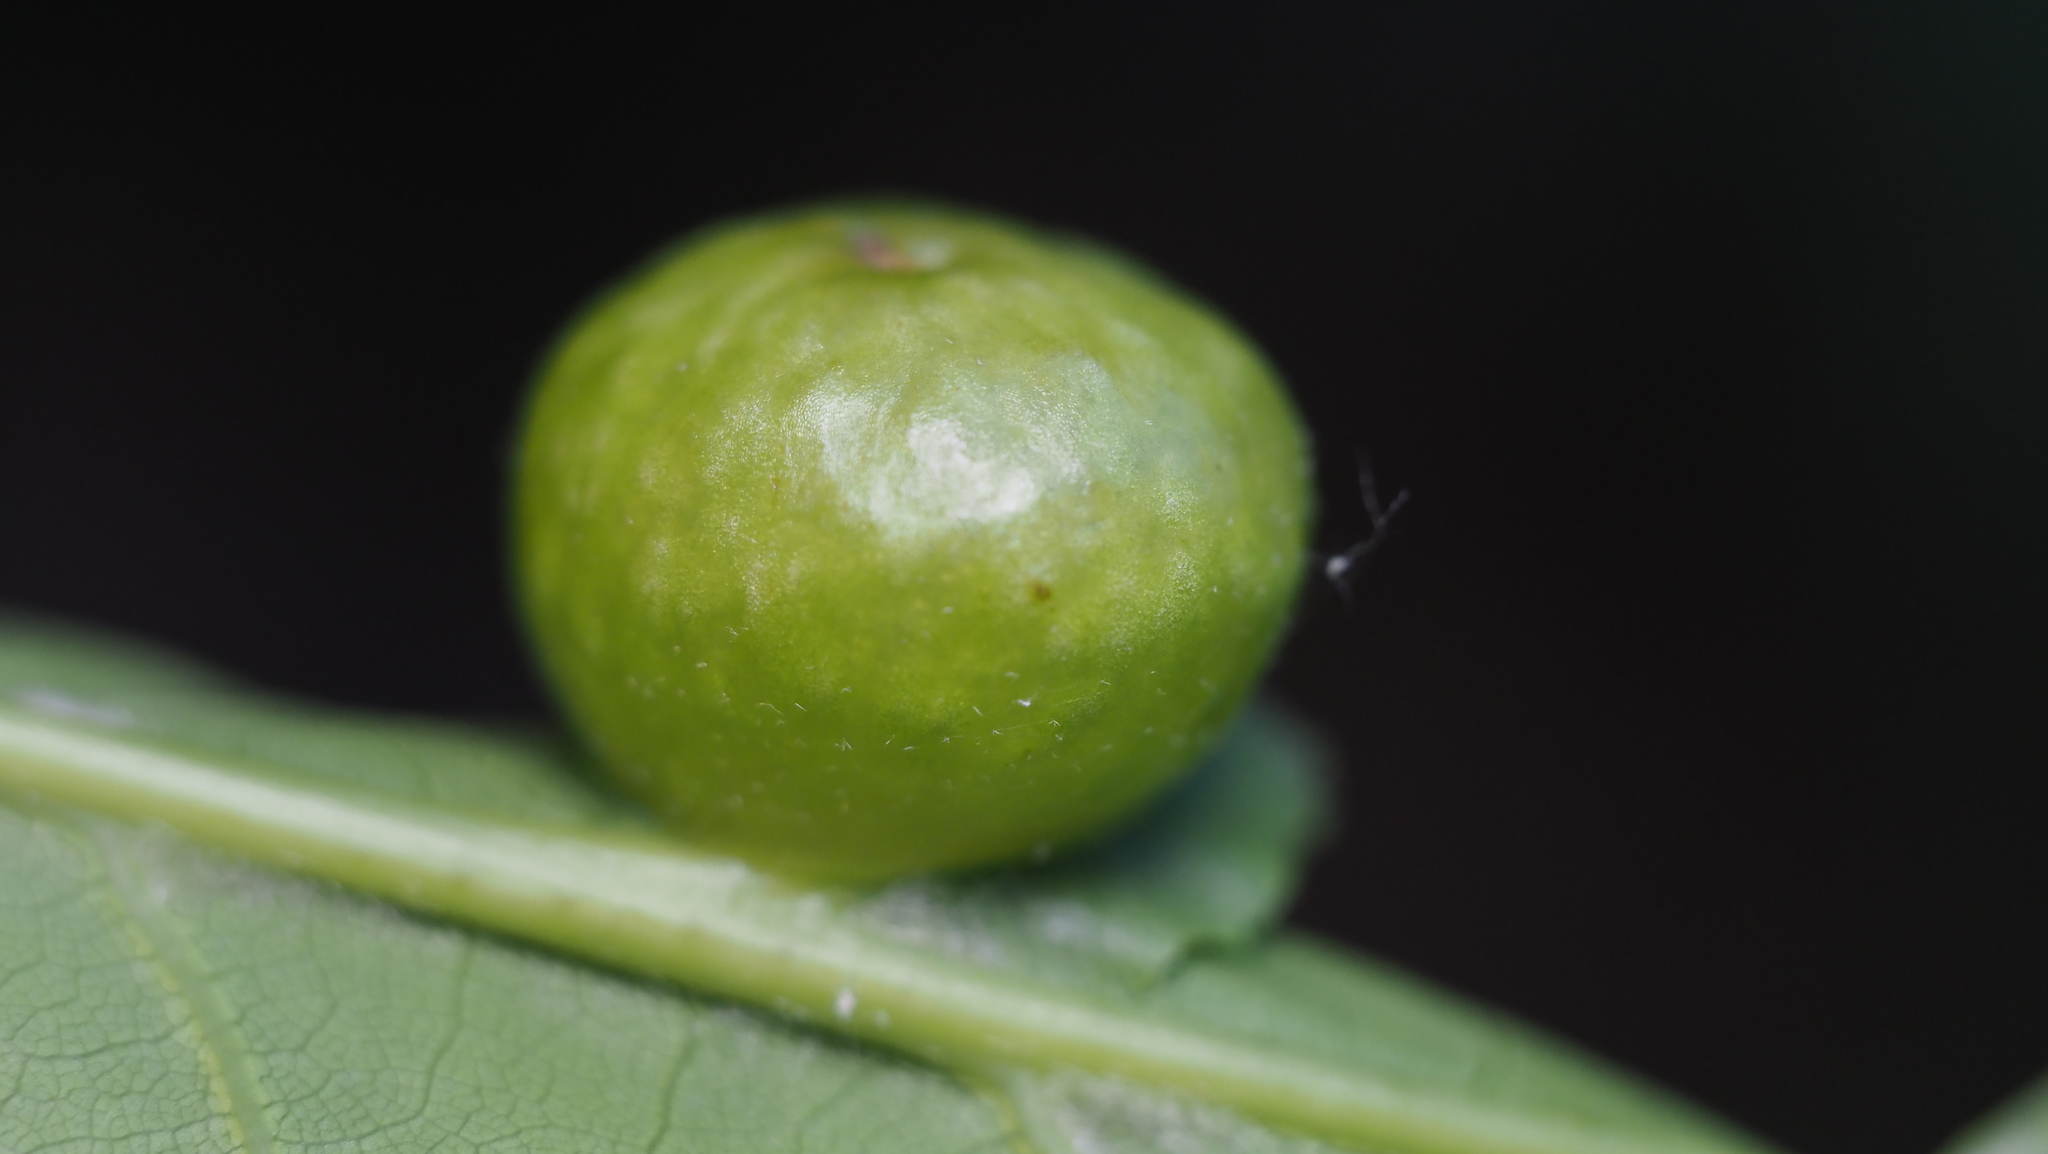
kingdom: Animalia
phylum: Arthropoda
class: Insecta
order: Hymenoptera
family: Cynipidae
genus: Amphibolips
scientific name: Amphibolips
